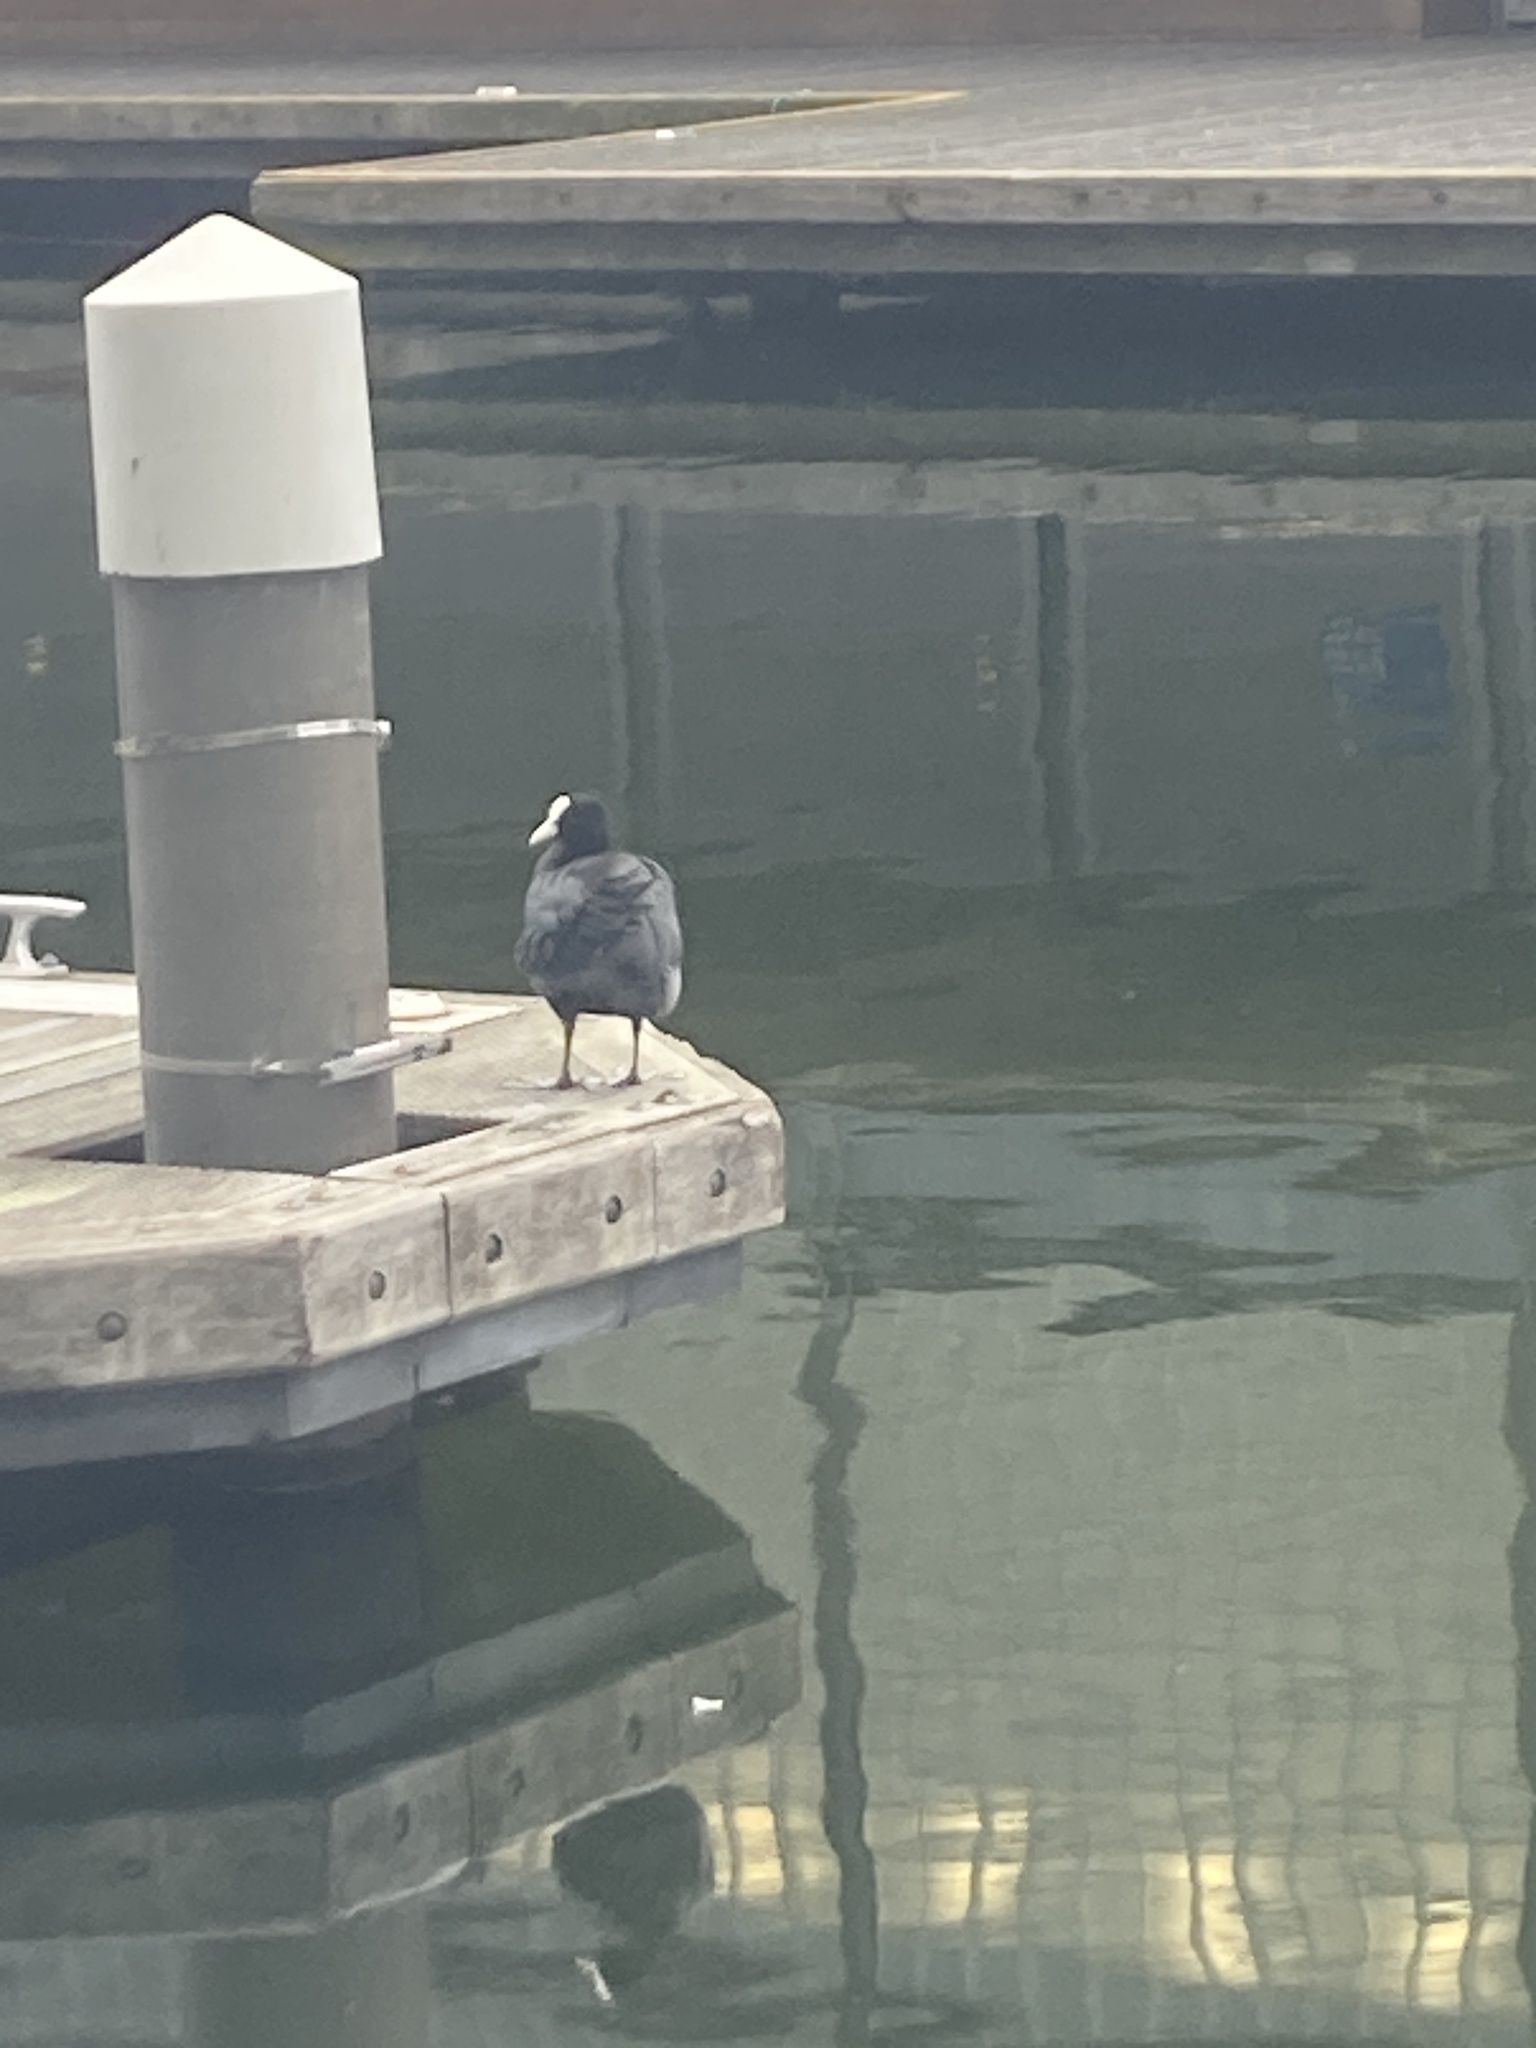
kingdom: Animalia
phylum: Chordata
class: Aves
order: Gruiformes
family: Rallidae
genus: Fulica
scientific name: Fulica atra
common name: Eurasian coot
